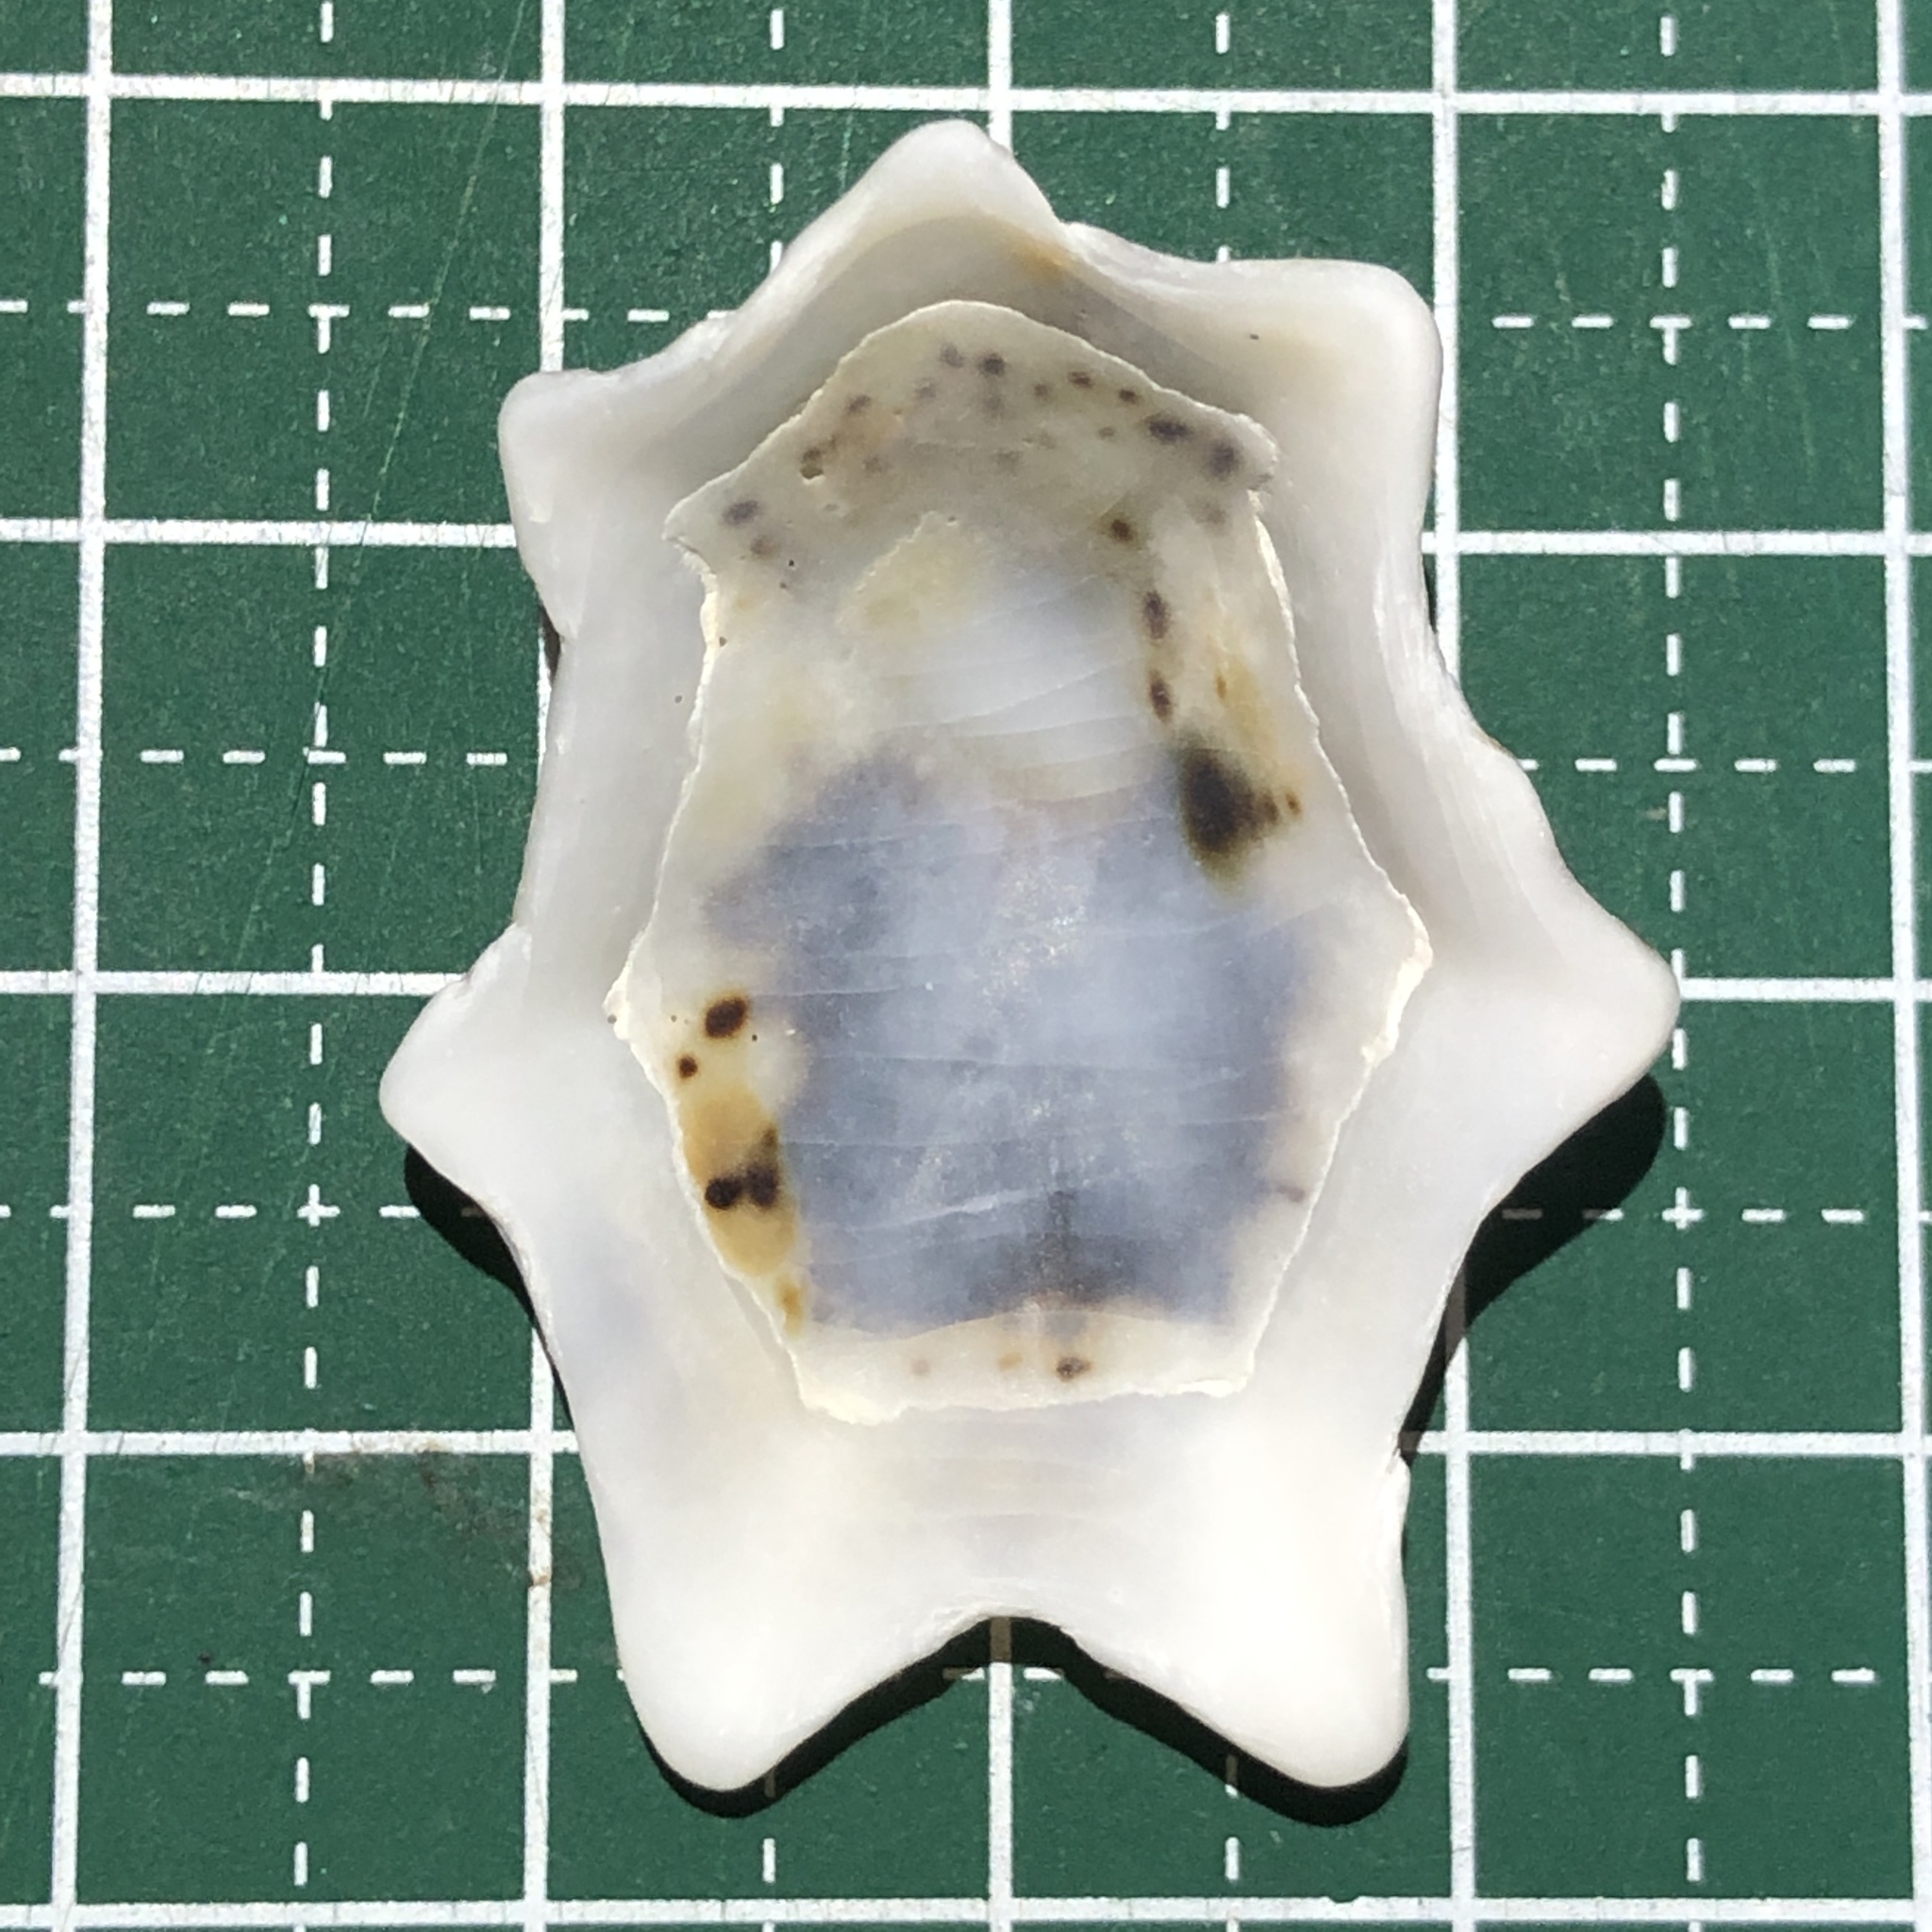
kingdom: Animalia
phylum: Mollusca
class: Gastropoda
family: Lottiidae
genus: Patelloida
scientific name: Patelloida saccharina
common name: Pacific sugar limpet
